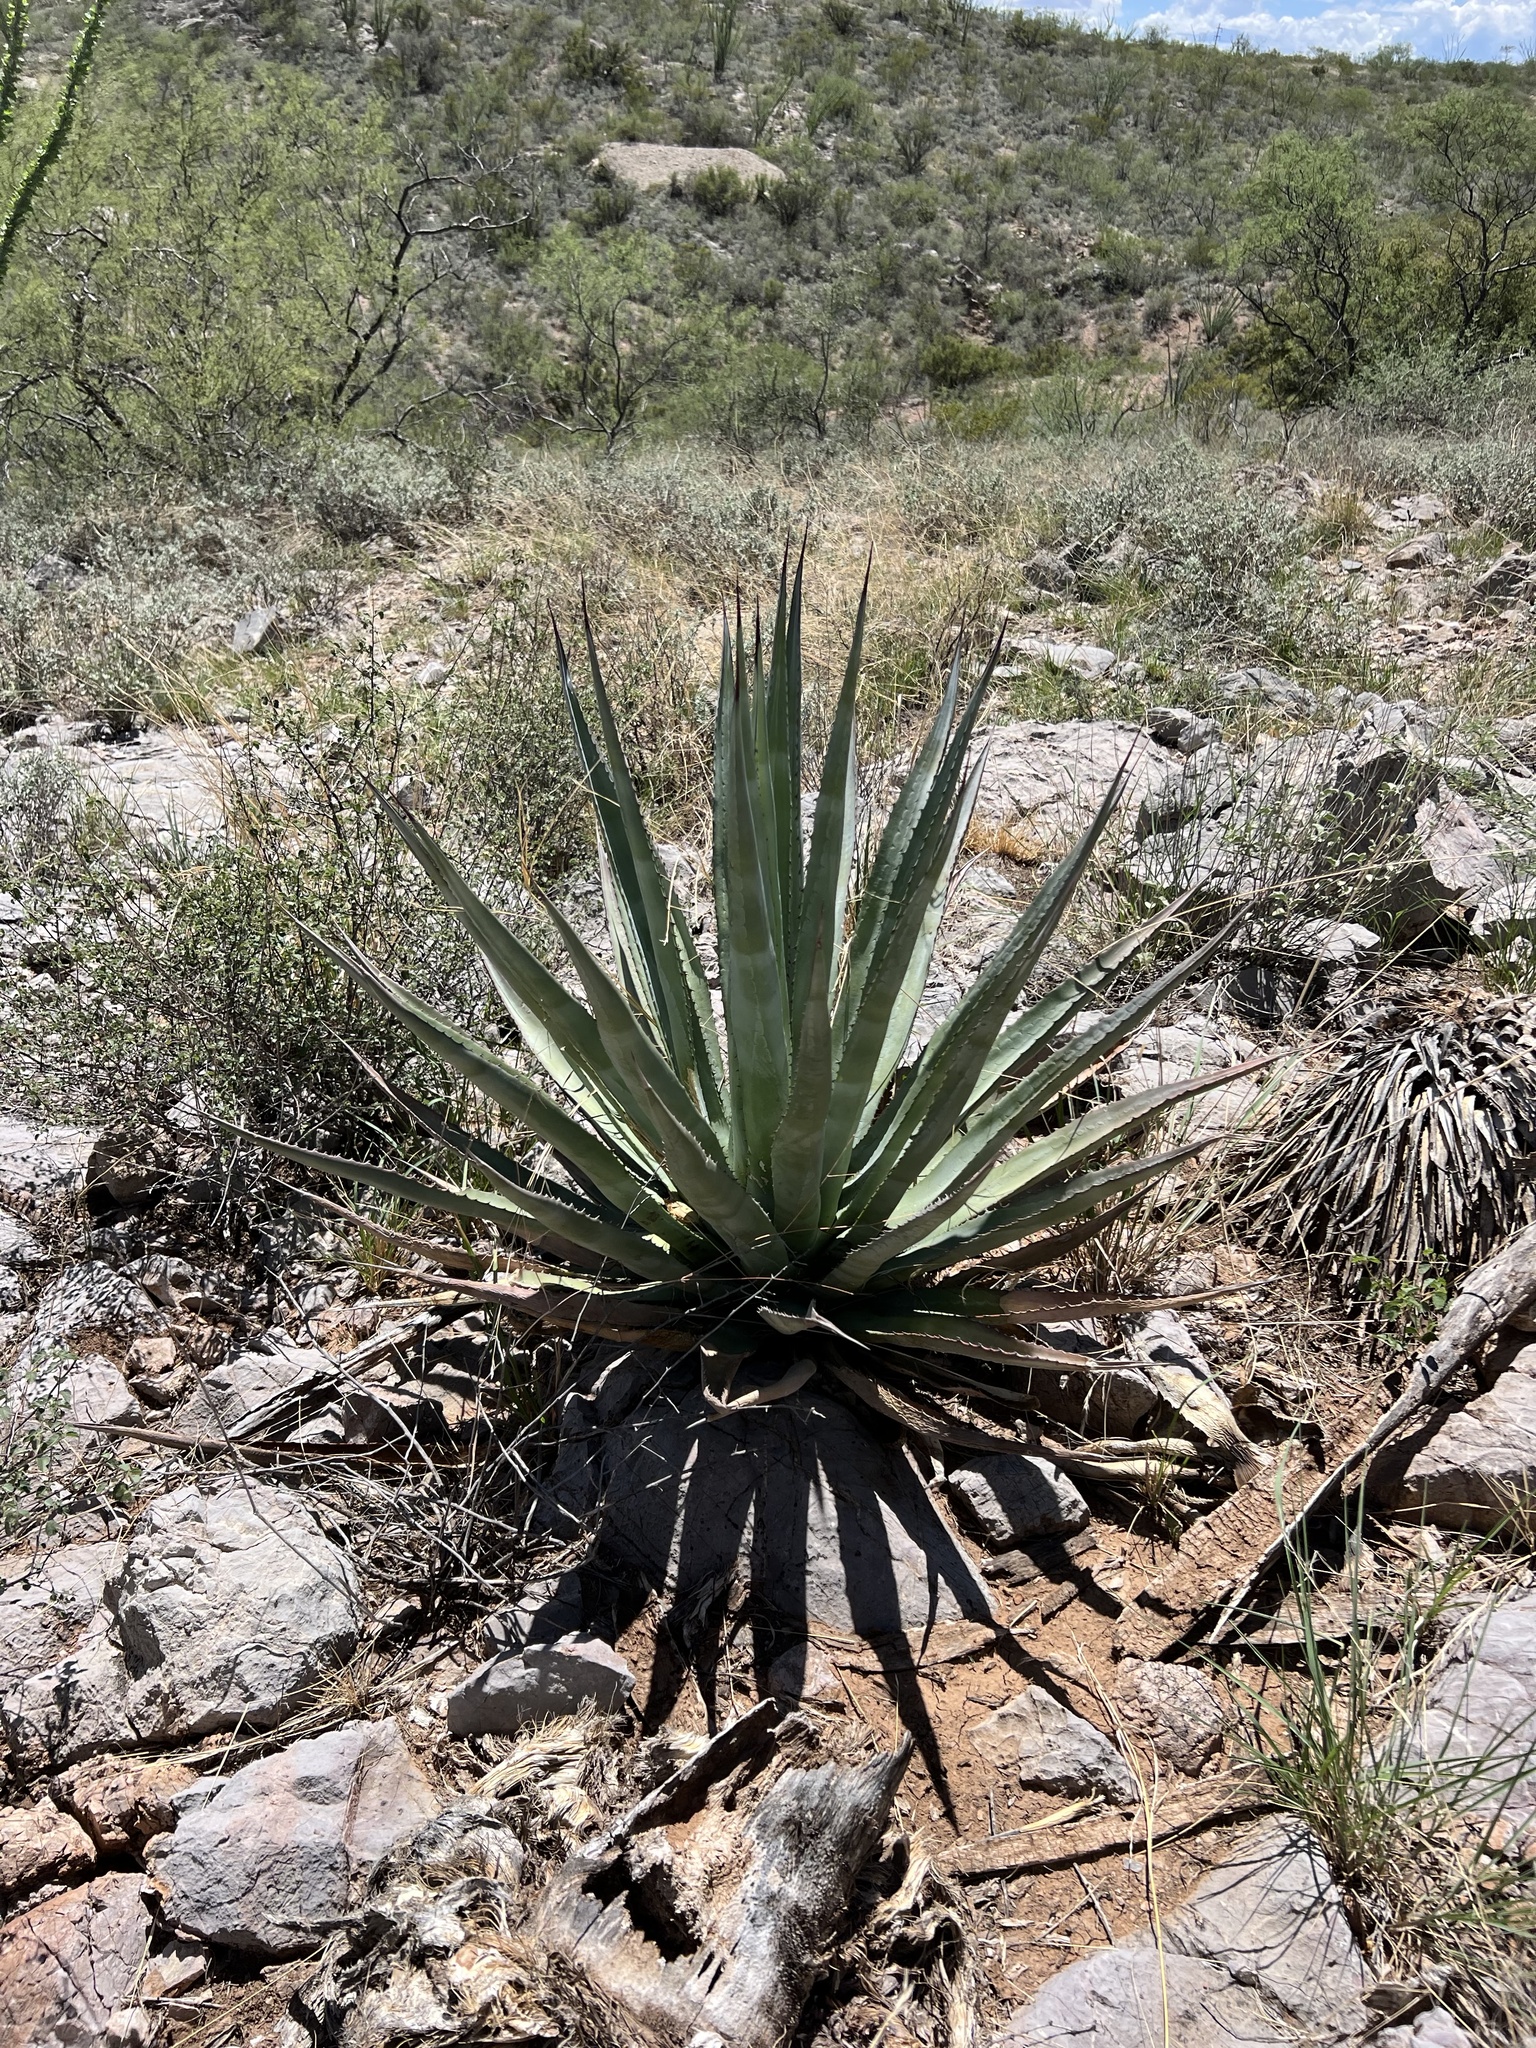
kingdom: Plantae
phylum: Tracheophyta
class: Liliopsida
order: Asparagales
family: Asparagaceae
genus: Agave
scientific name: Agave palmeri
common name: Palmer agave
